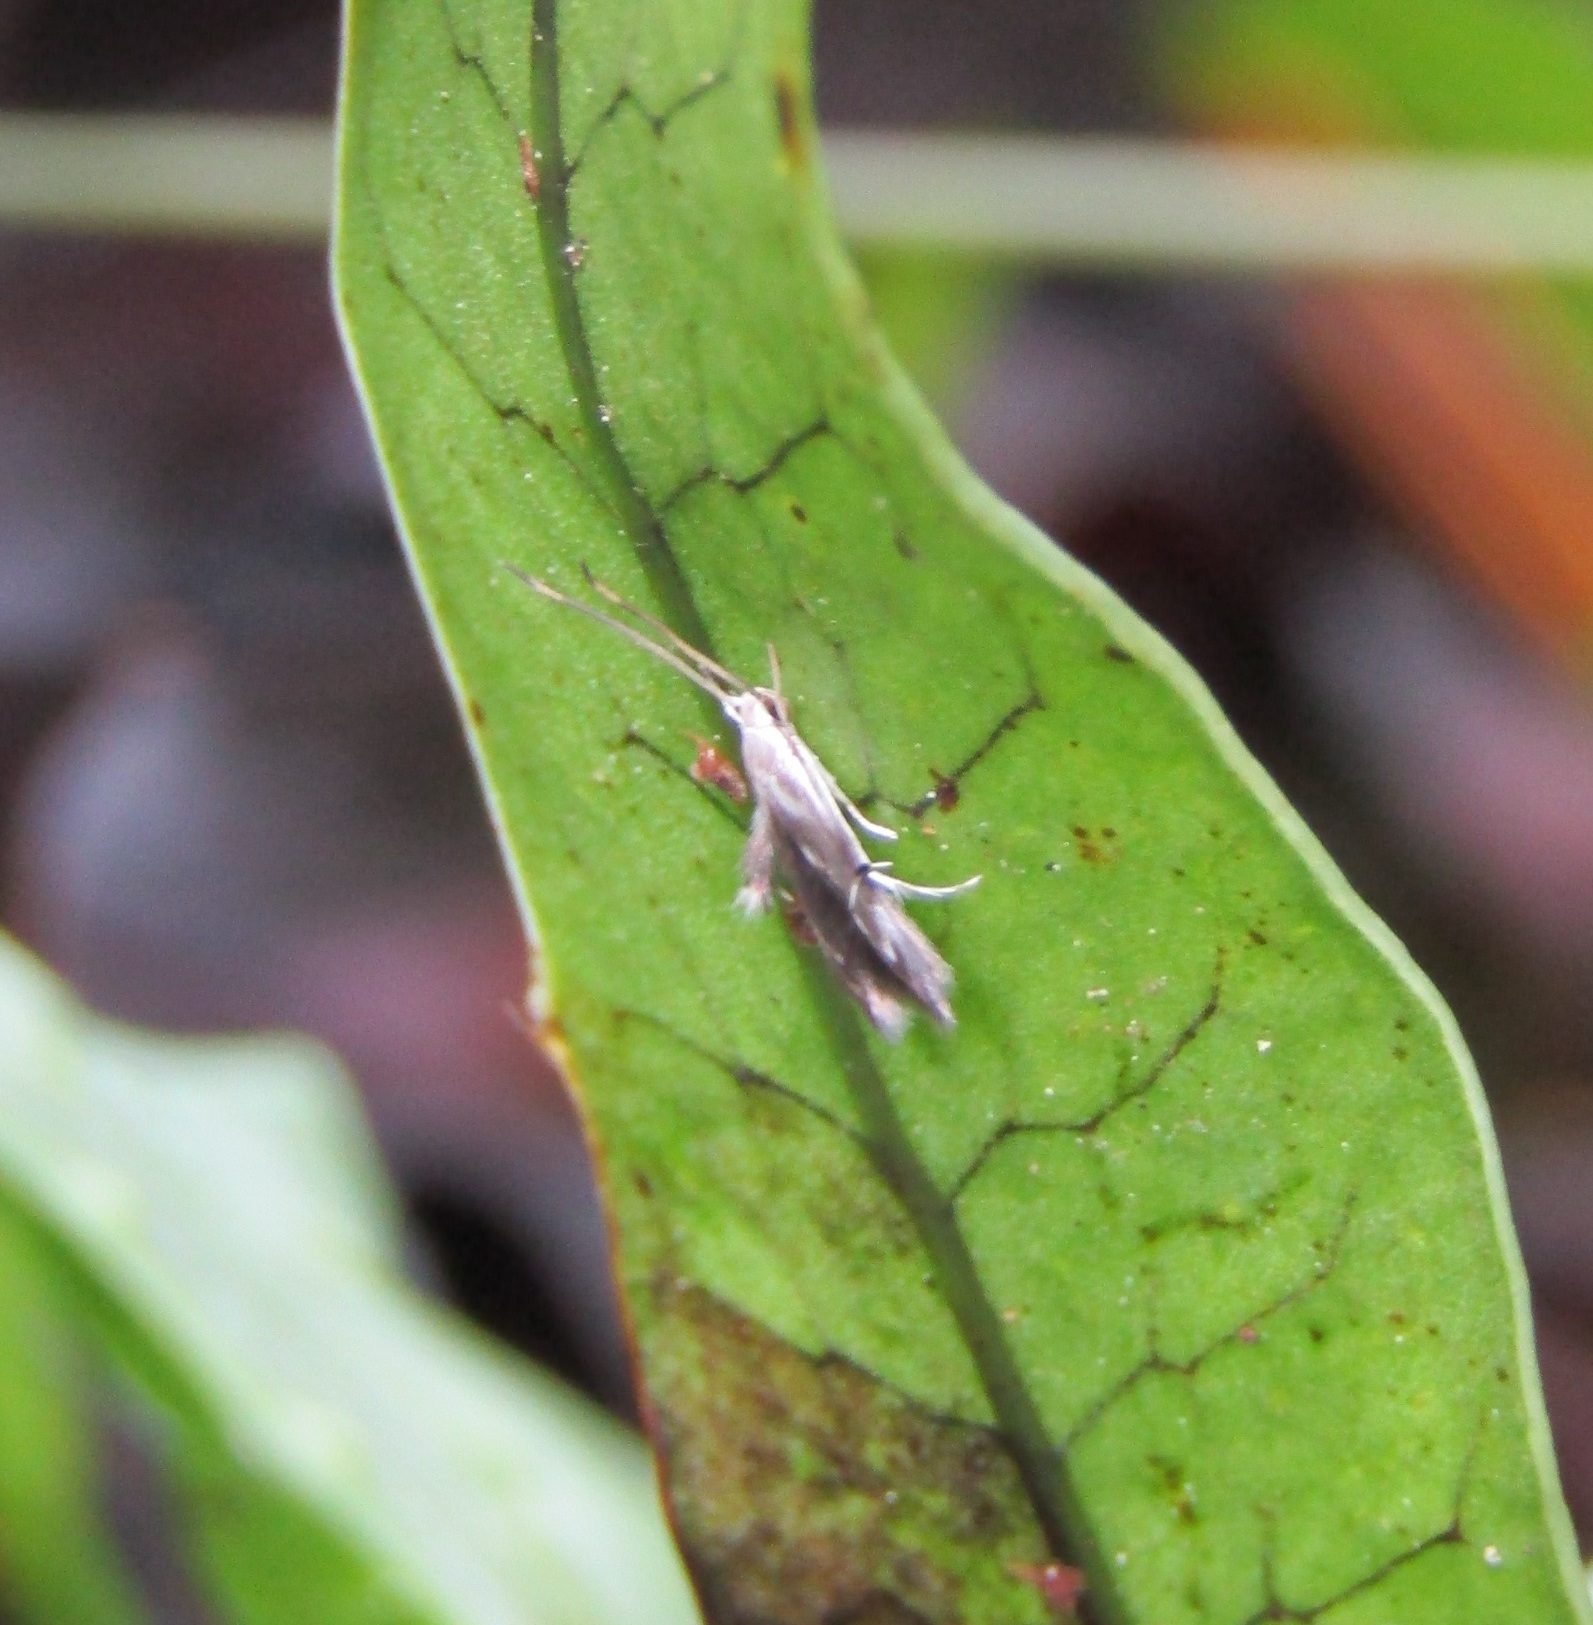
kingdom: Animalia
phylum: Arthropoda
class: Insecta
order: Lepidoptera
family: Stathmopodidae
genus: Thylacosceles
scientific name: Thylacosceles radians
